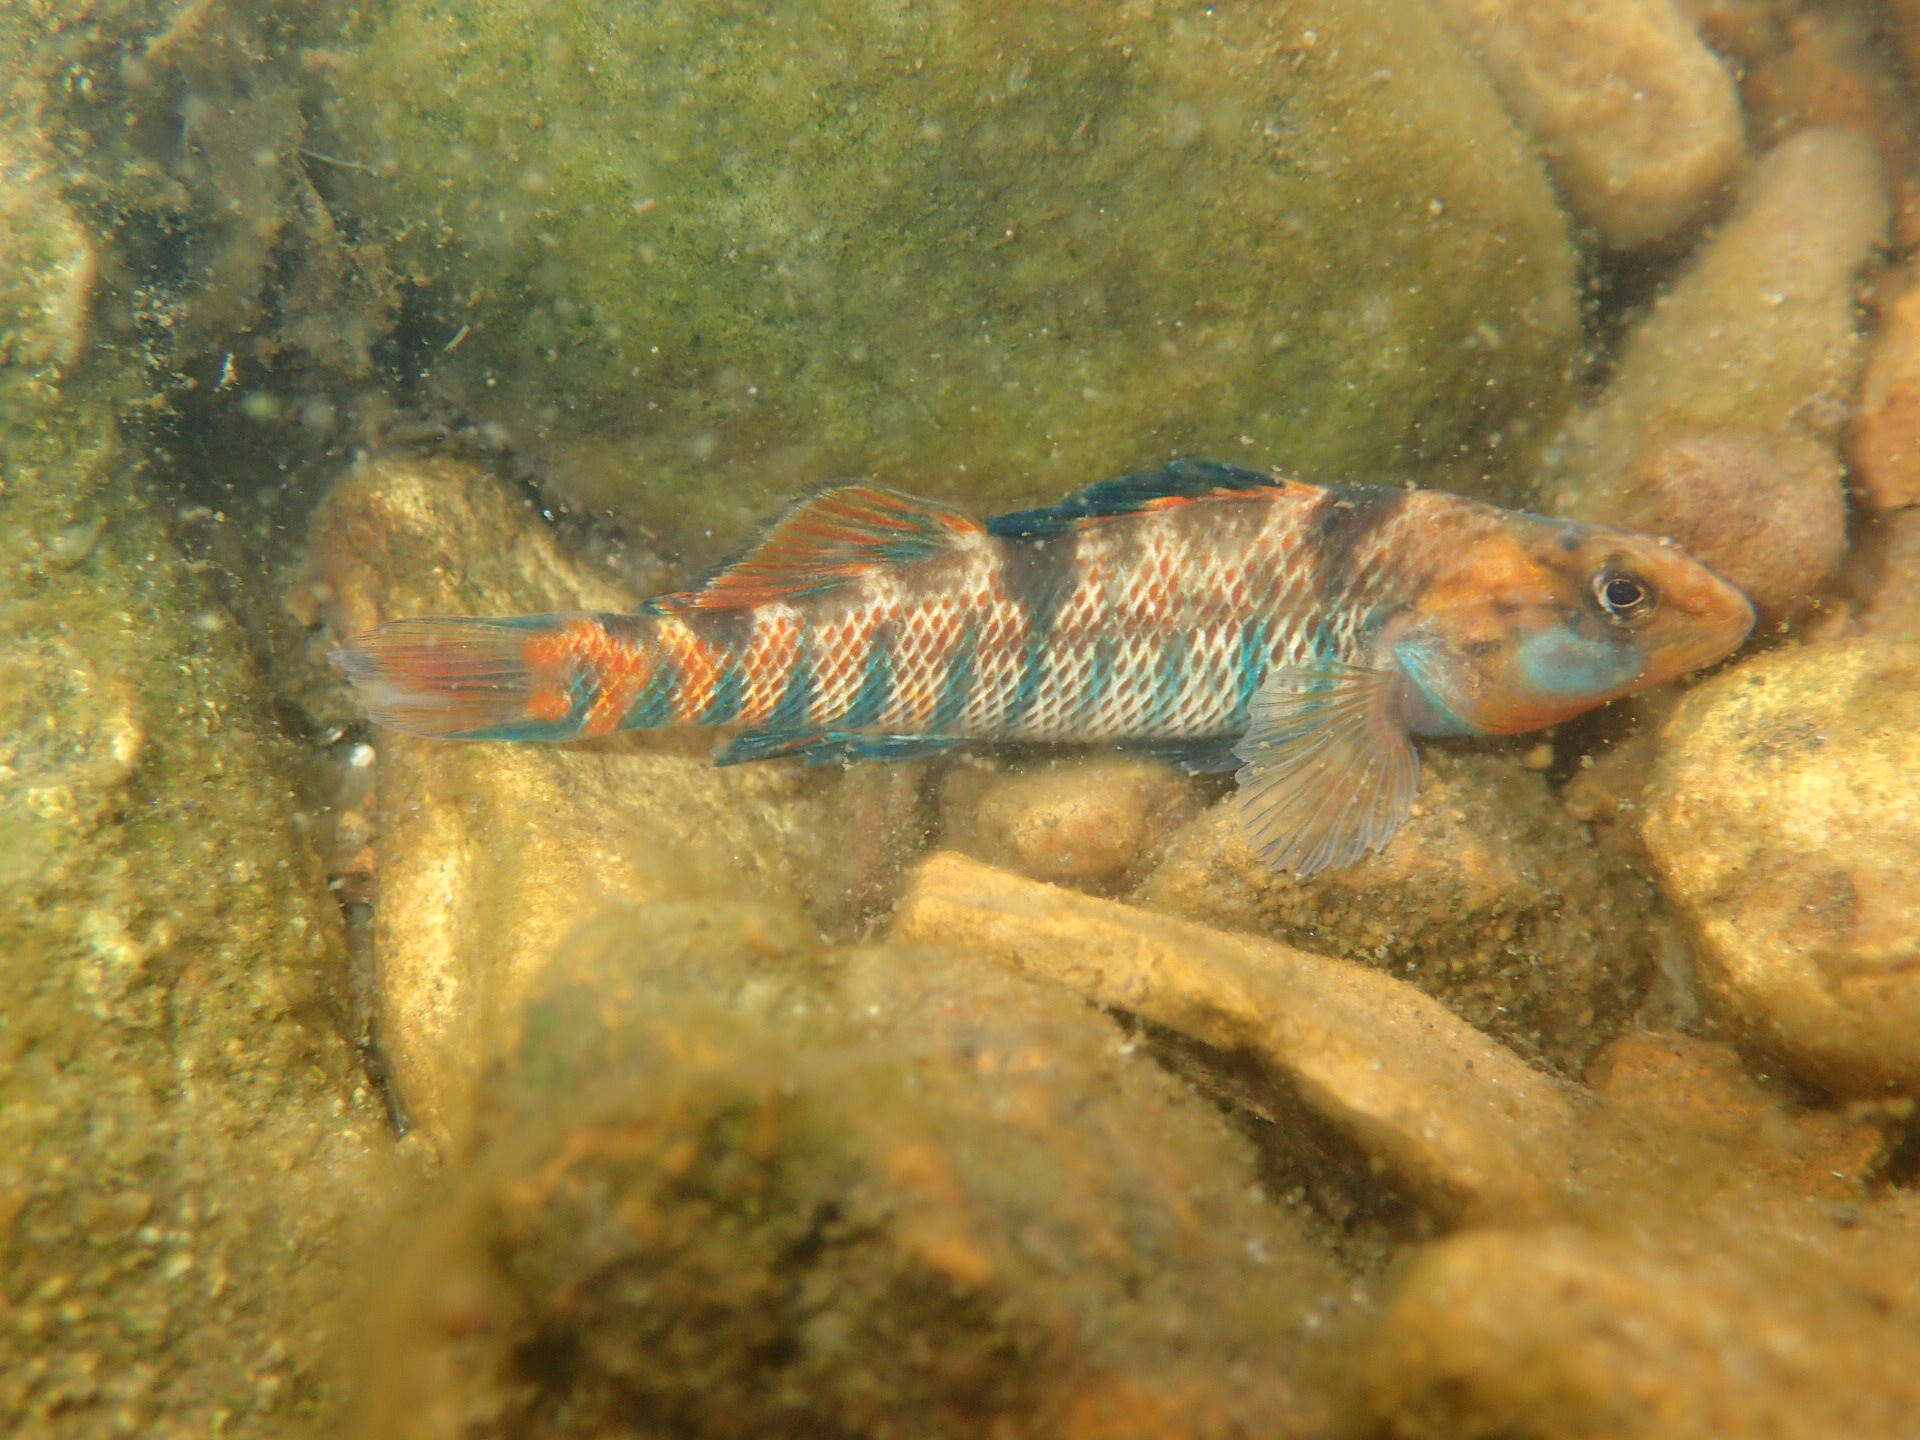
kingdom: Animalia
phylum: Chordata
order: Perciformes
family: Percidae
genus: Etheostoma
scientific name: Etheostoma caeruleum
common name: Rainbow darter
